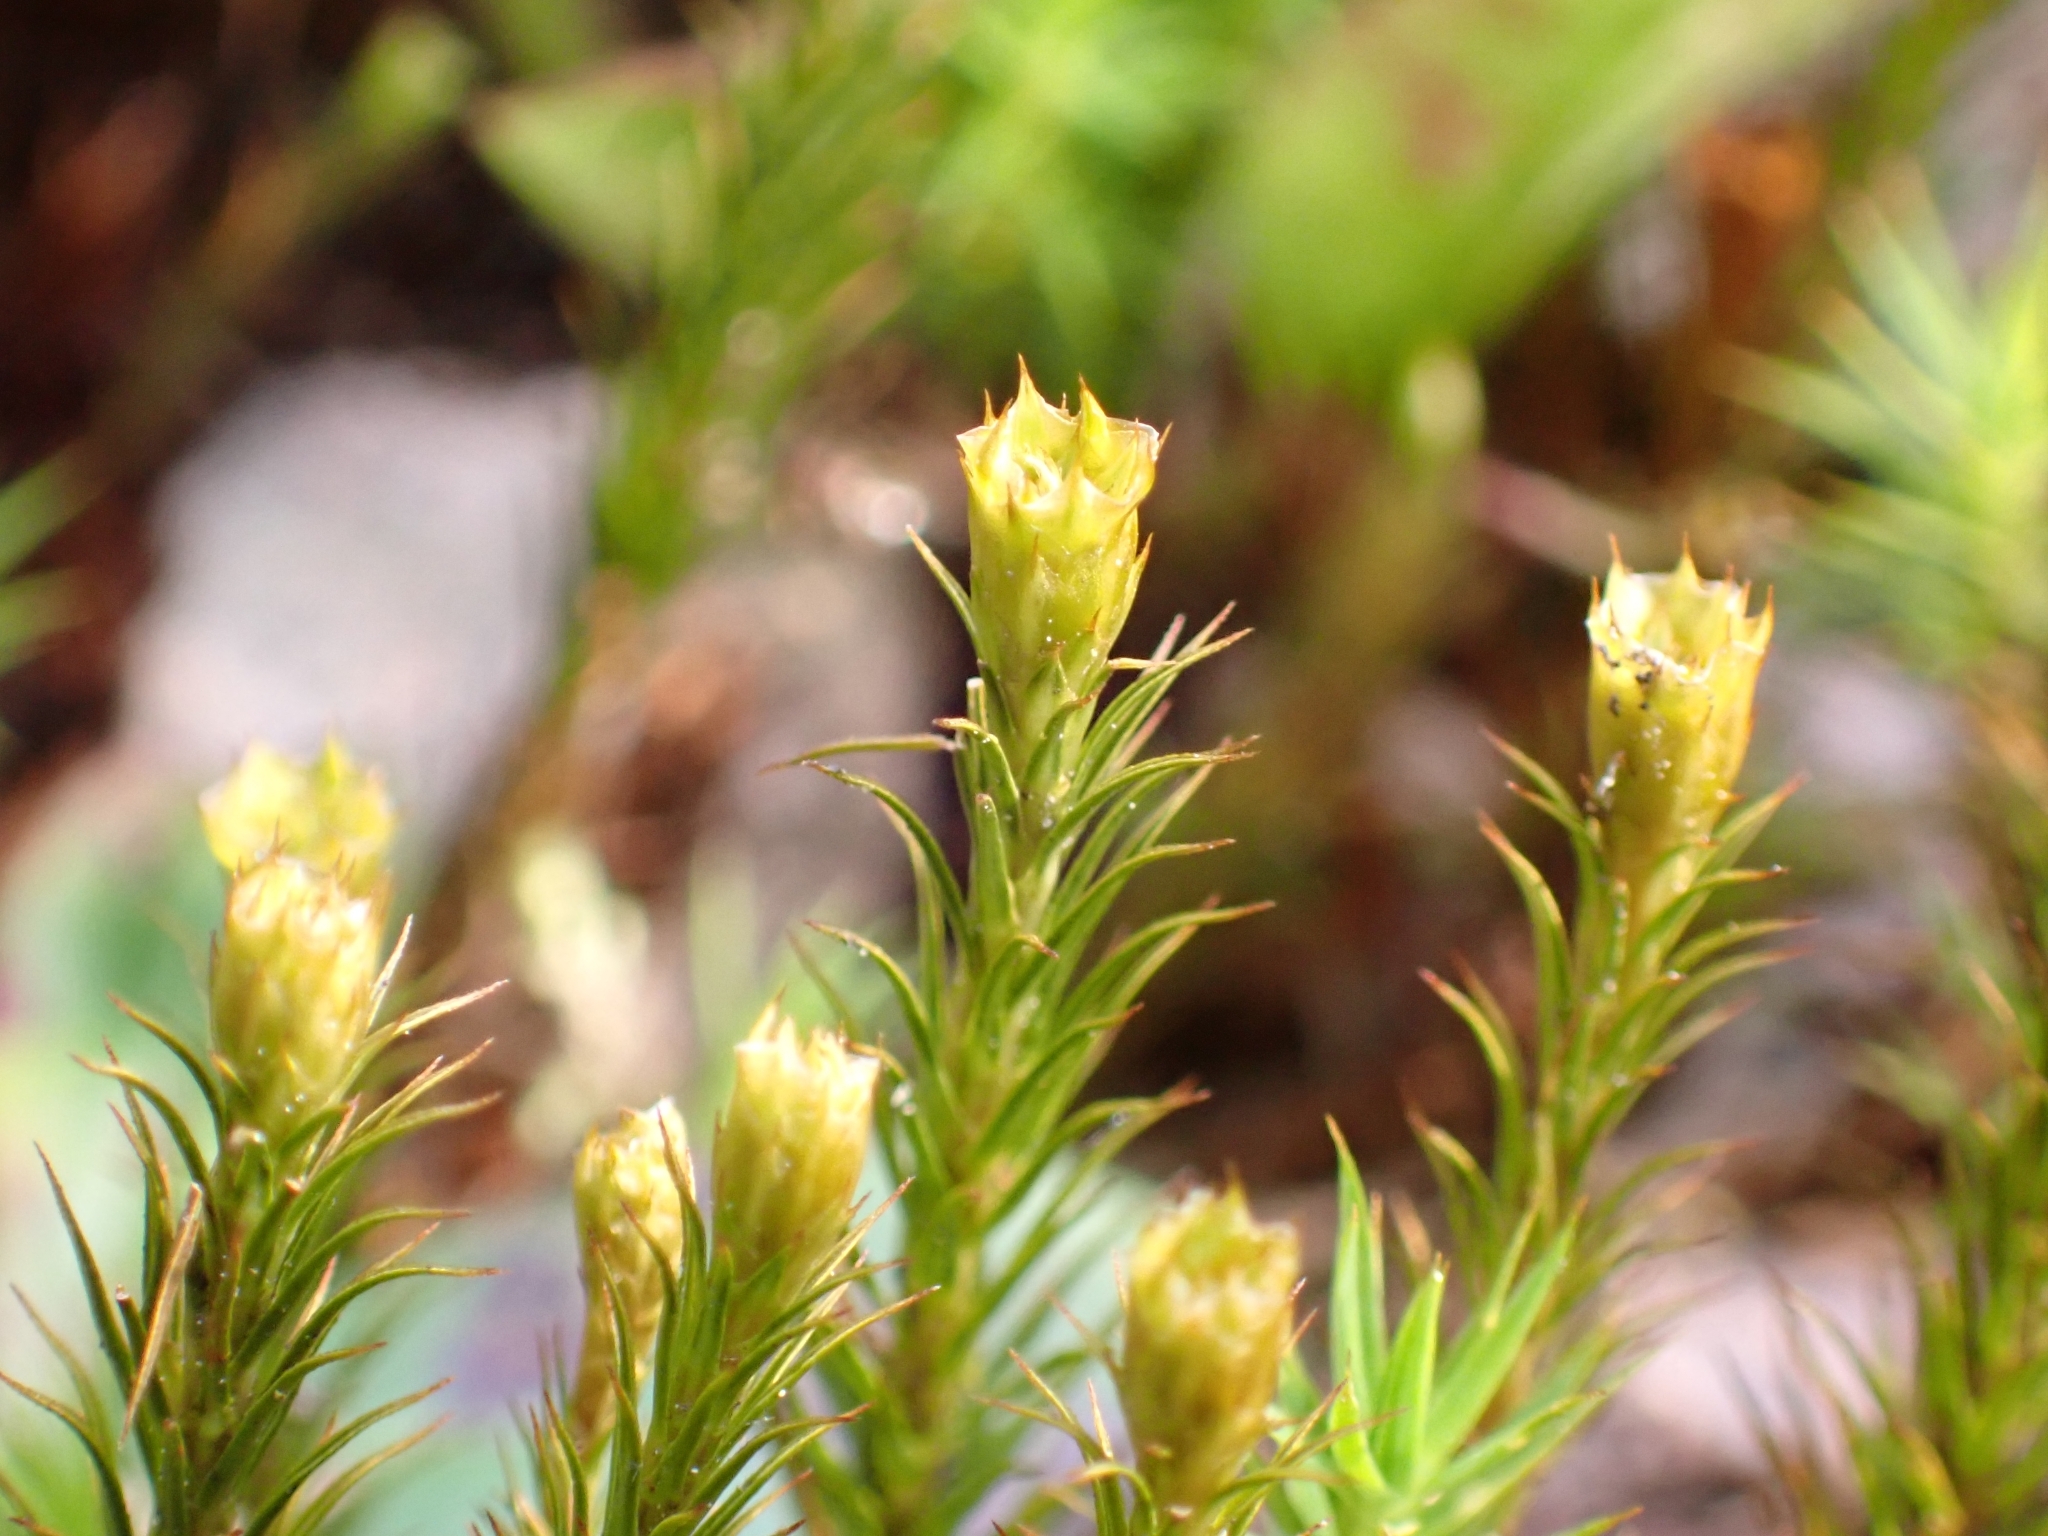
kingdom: Plantae
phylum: Bryophyta
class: Polytrichopsida
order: Polytrichales
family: Polytrichaceae
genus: Polytrichum
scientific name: Polytrichum formosum
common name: Bank haircap moss
